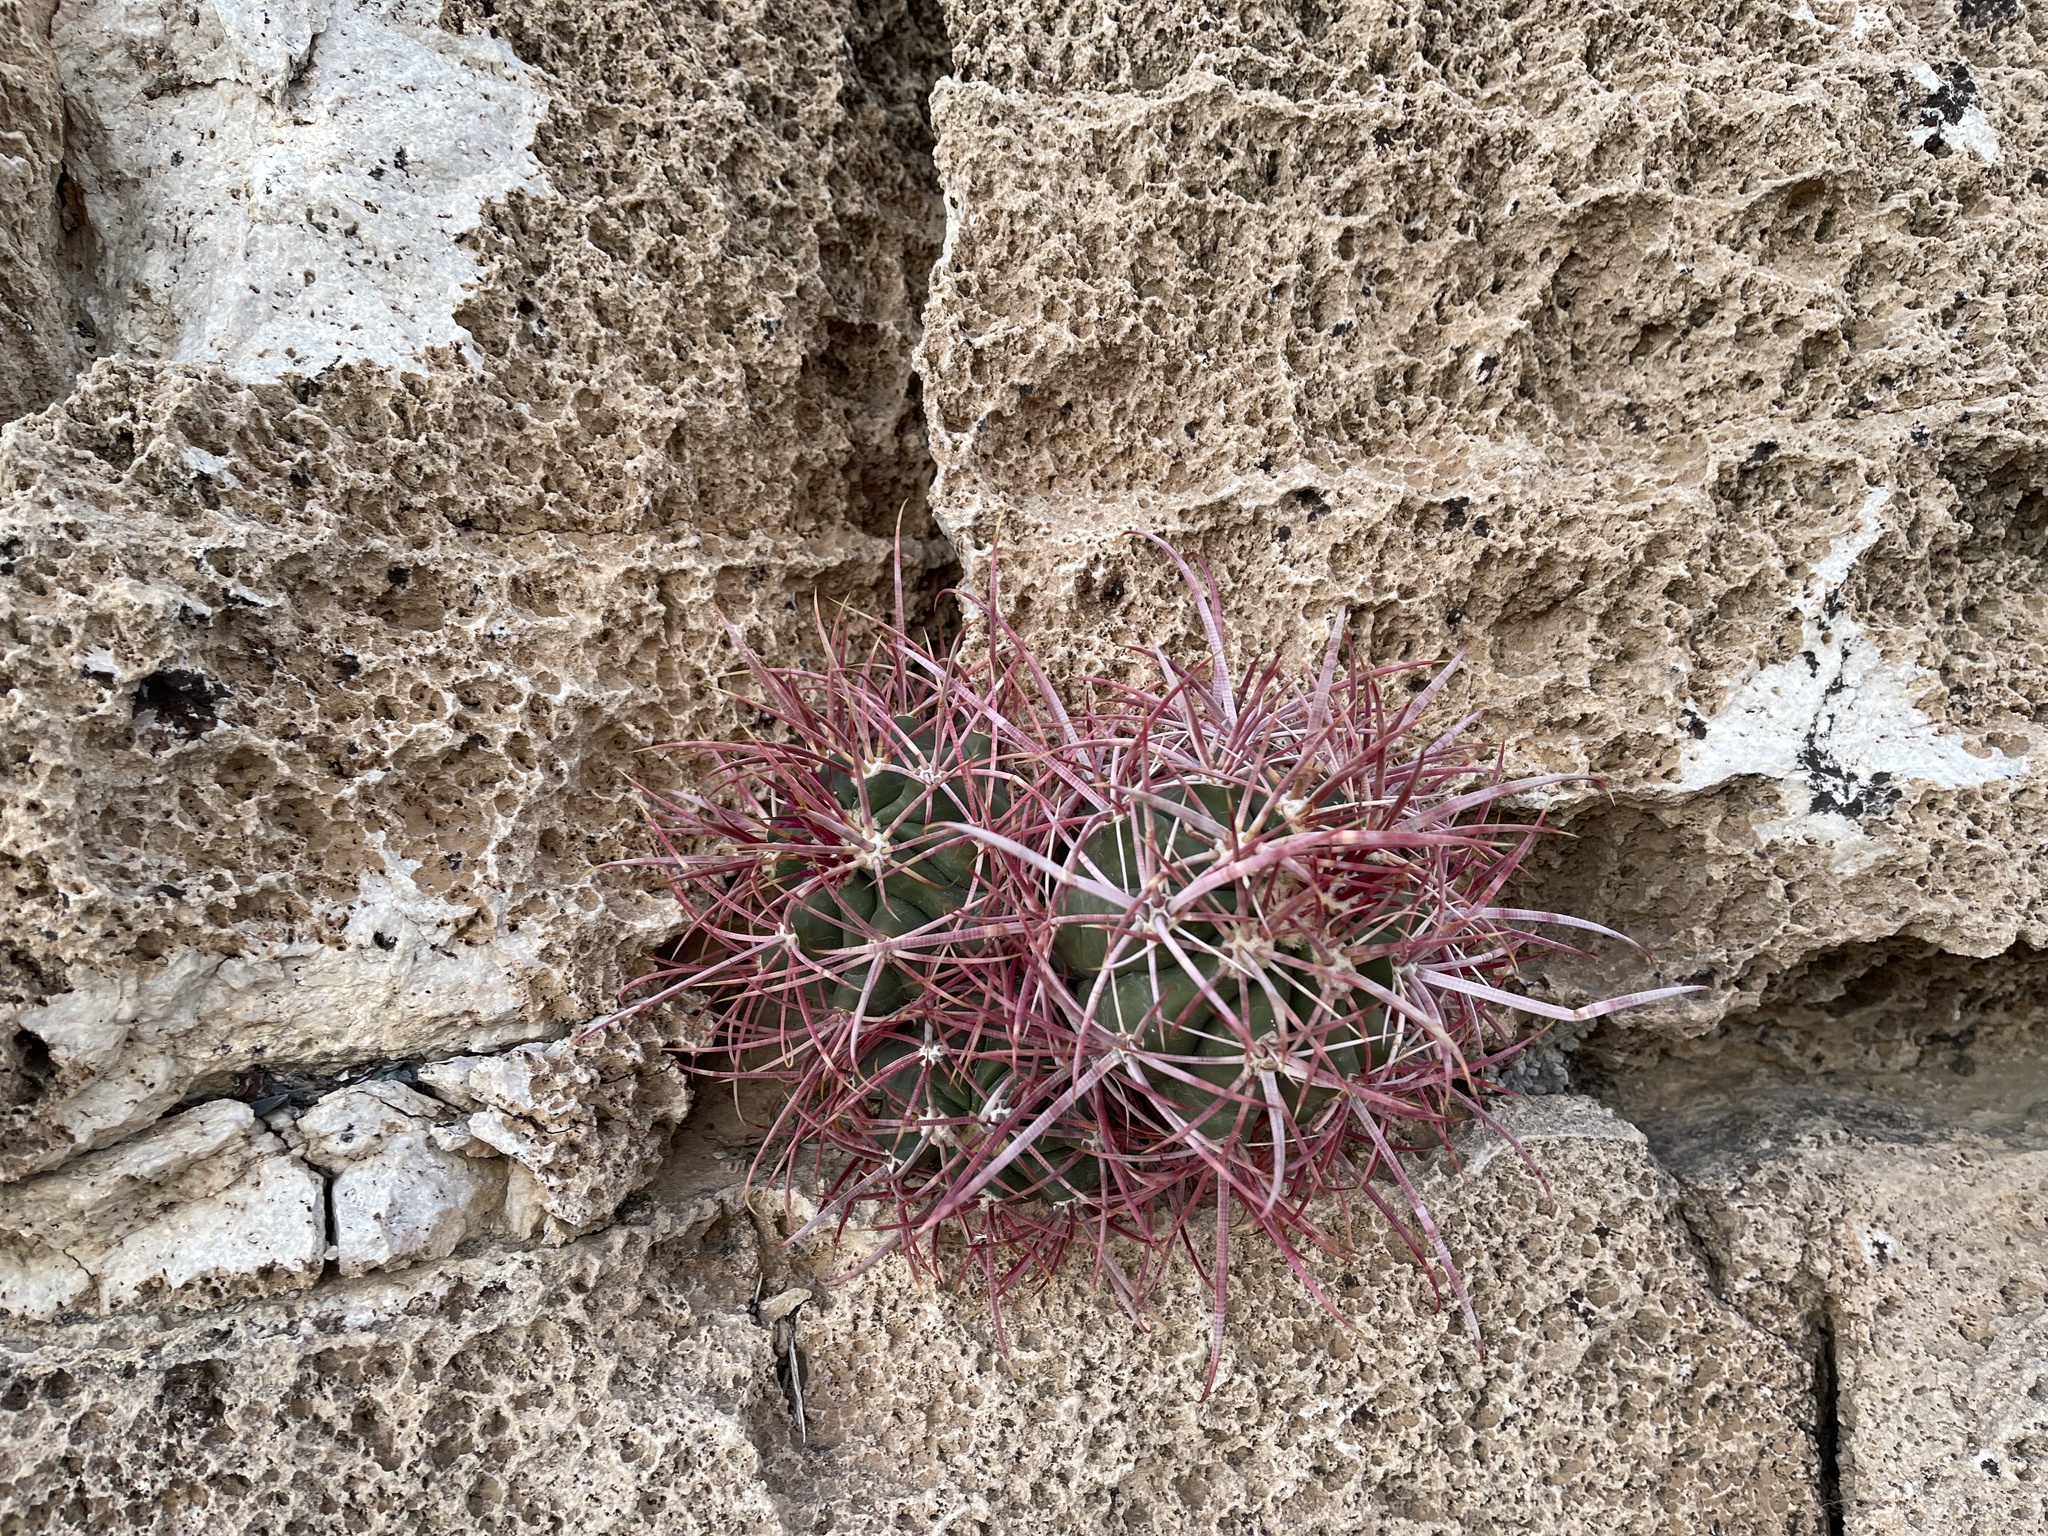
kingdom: Plantae
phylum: Tracheophyta
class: Magnoliopsida
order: Caryophyllales
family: Cactaceae
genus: Ferocactus
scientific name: Ferocactus cylindraceus
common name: California barrel cactus
